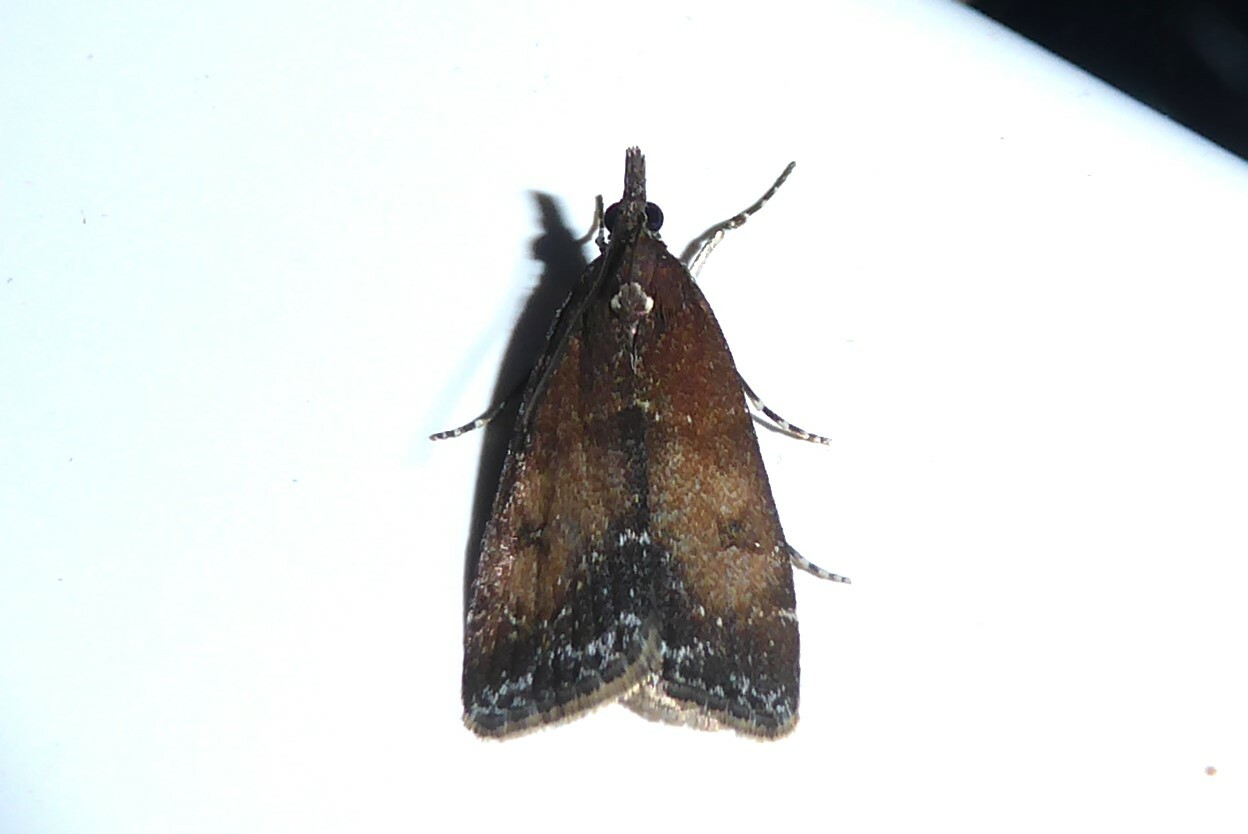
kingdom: Animalia
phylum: Arthropoda
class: Insecta
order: Lepidoptera
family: Crambidae
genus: Eudonia
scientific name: Eudonia asterisca
